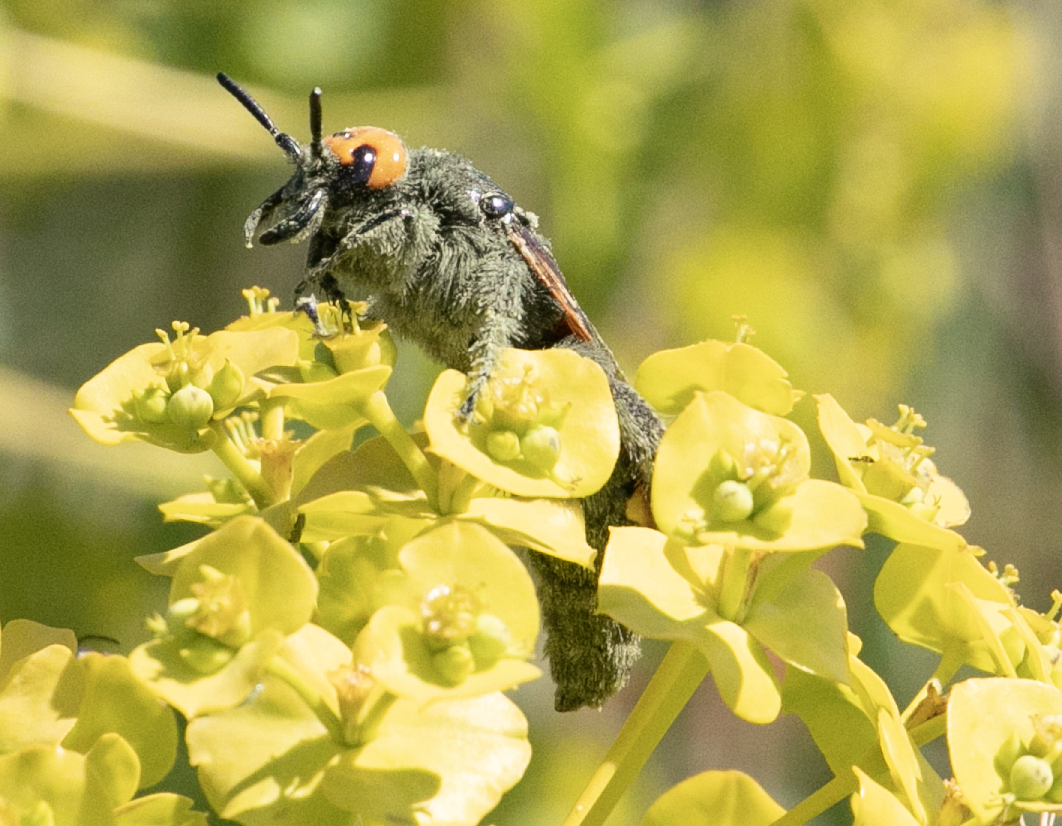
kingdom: Animalia
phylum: Arthropoda
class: Insecta
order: Hymenoptera
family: Scoliidae
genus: Megascolia
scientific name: Megascolia maculata
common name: Mammoth wasp
